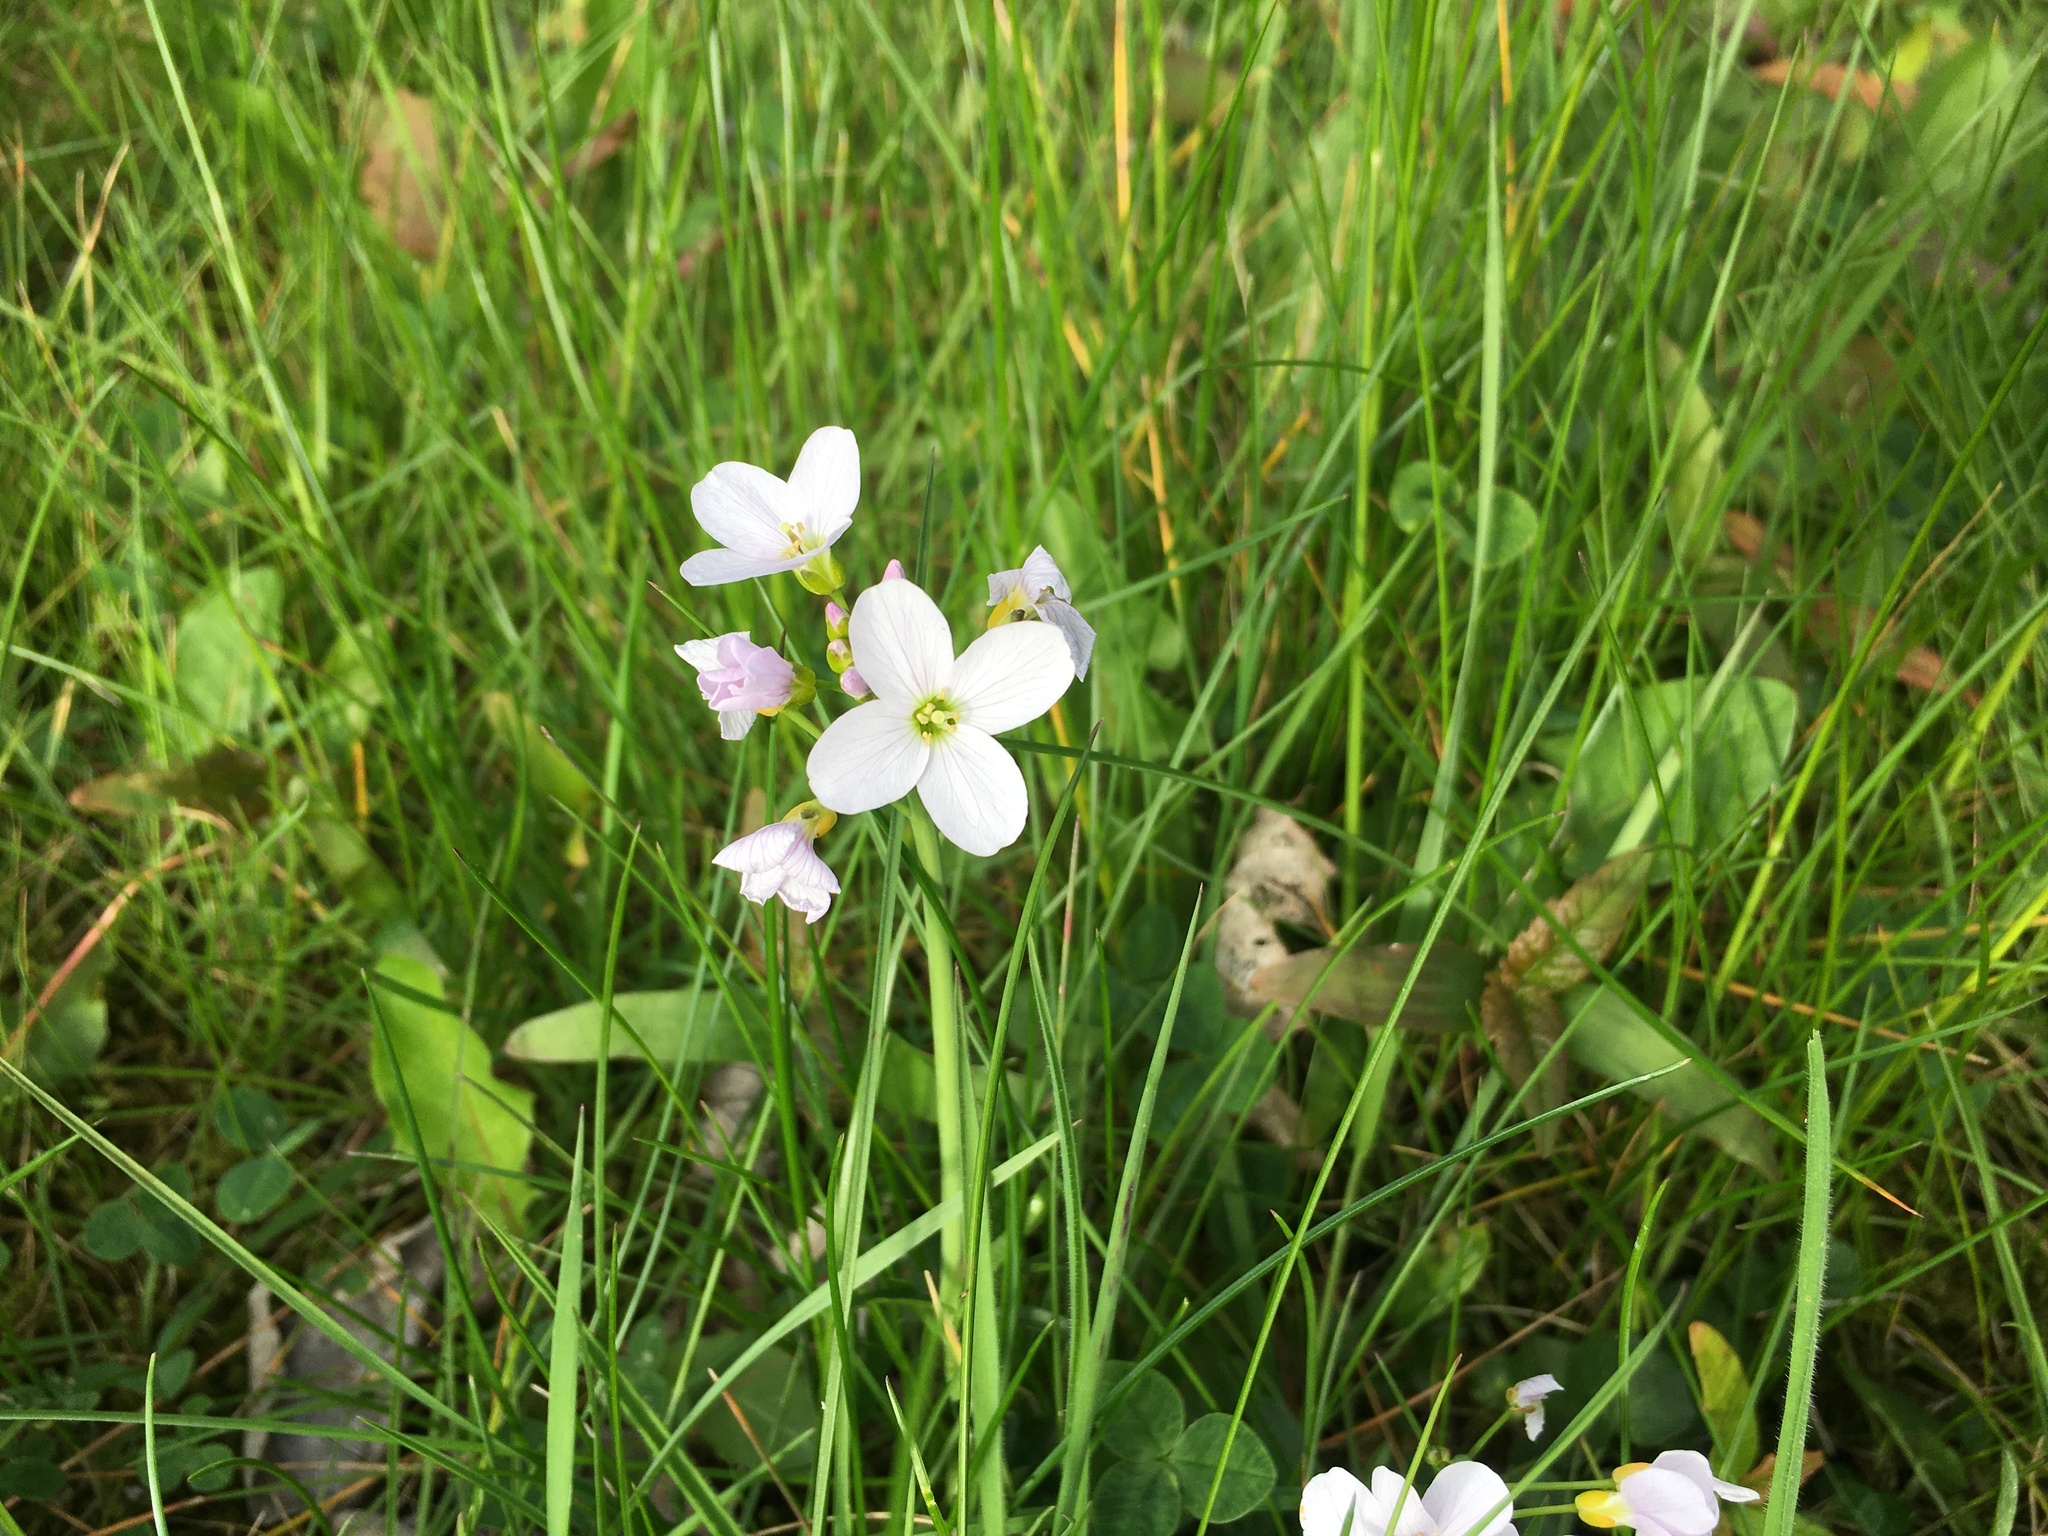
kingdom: Plantae
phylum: Tracheophyta
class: Magnoliopsida
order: Brassicales
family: Brassicaceae
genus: Cardamine
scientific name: Cardamine pratensis
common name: Cuckoo flower
